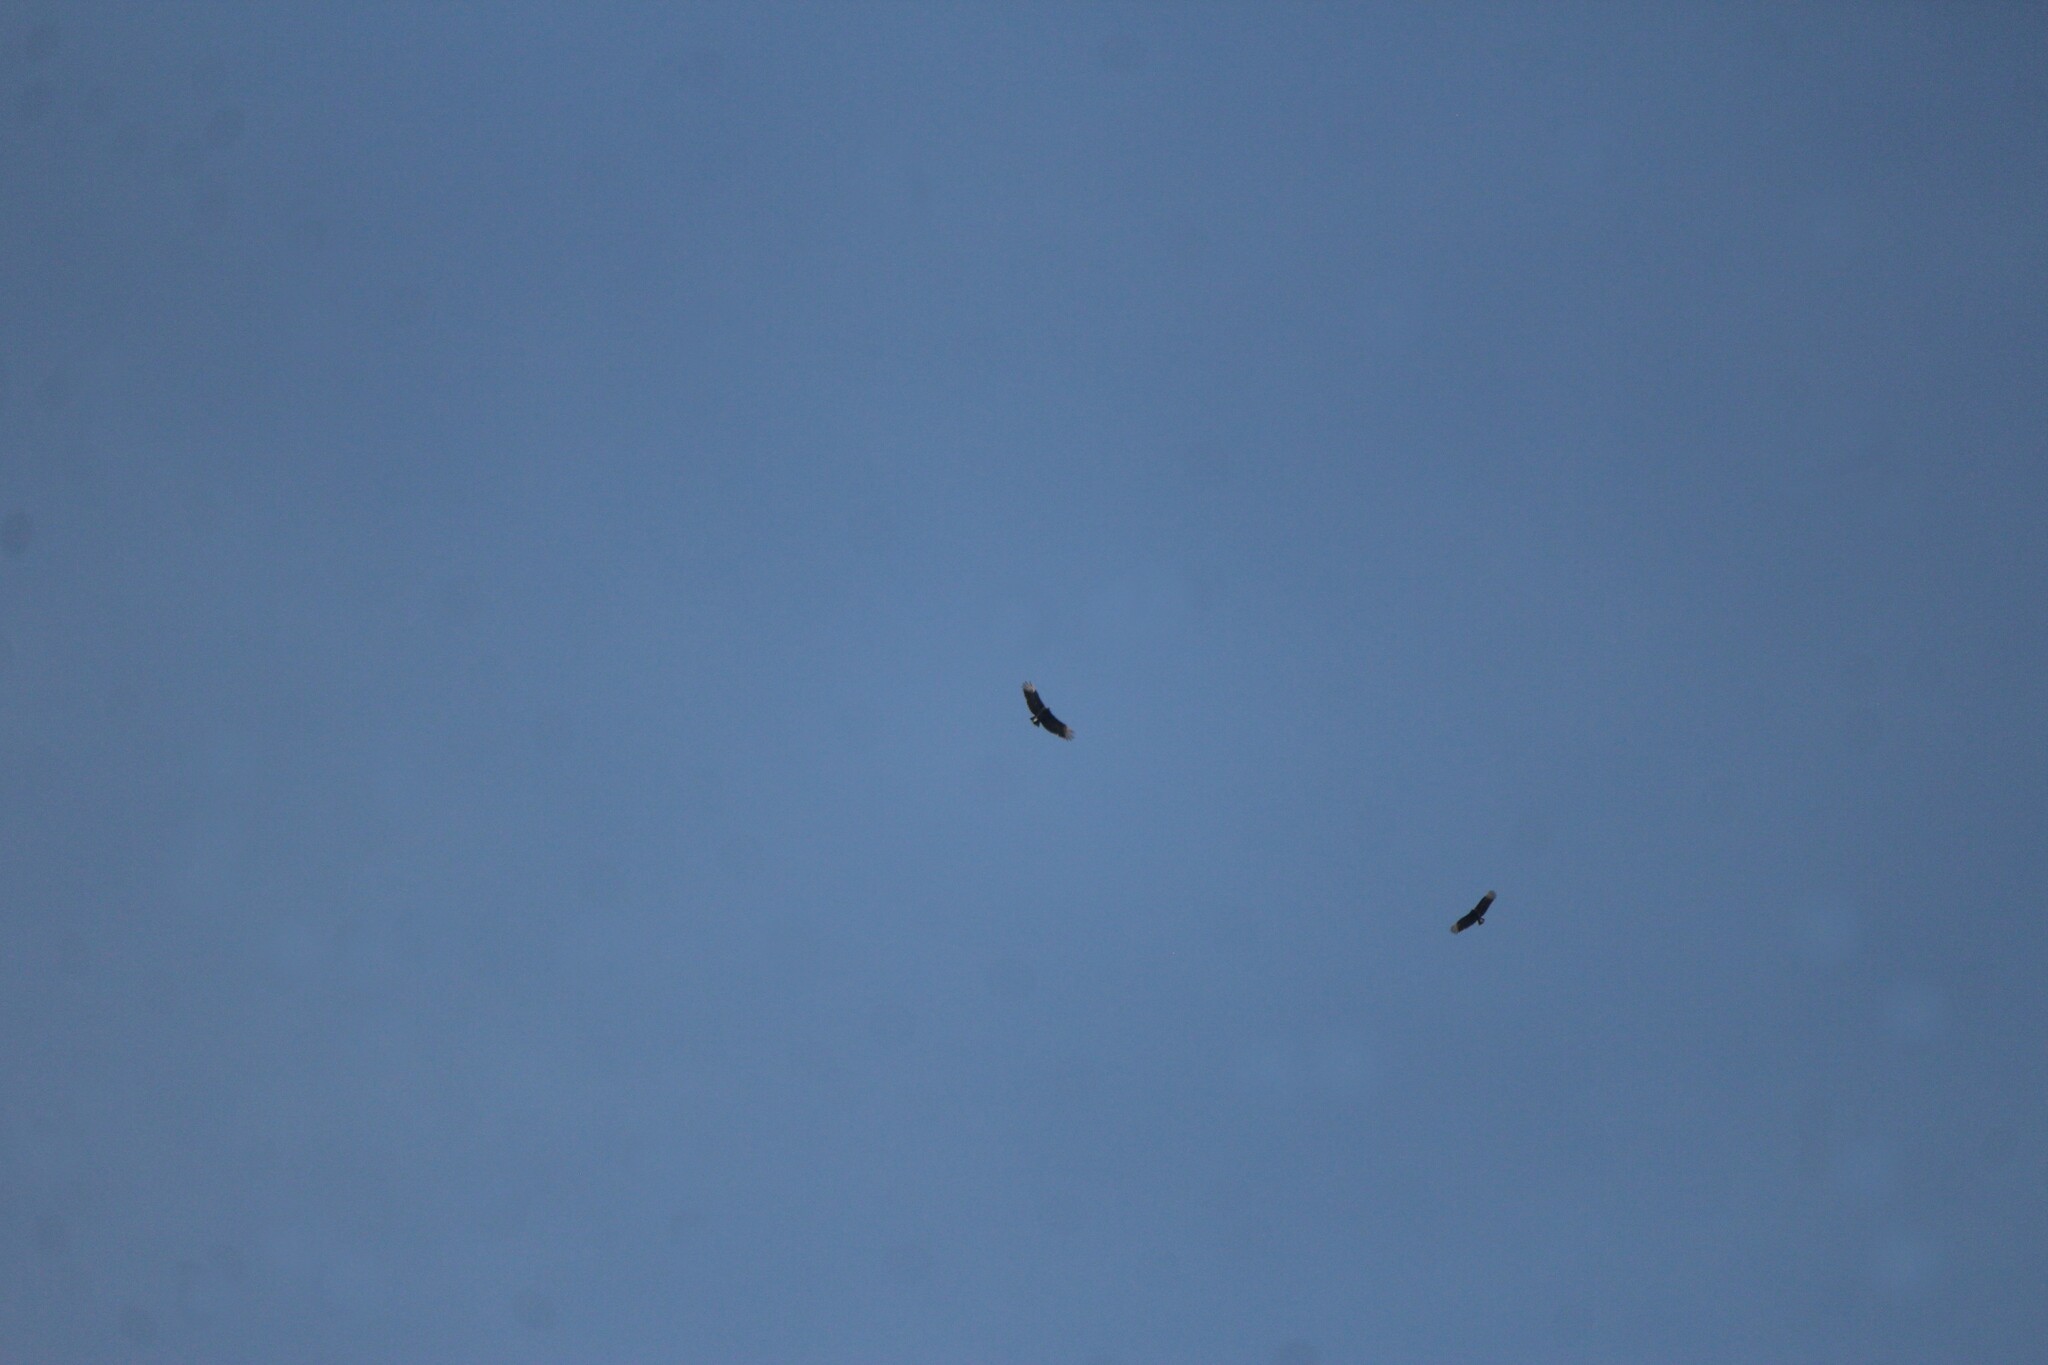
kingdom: Animalia
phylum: Chordata
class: Aves
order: Accipitriformes
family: Cathartidae
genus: Coragyps
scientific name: Coragyps atratus
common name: Black vulture
